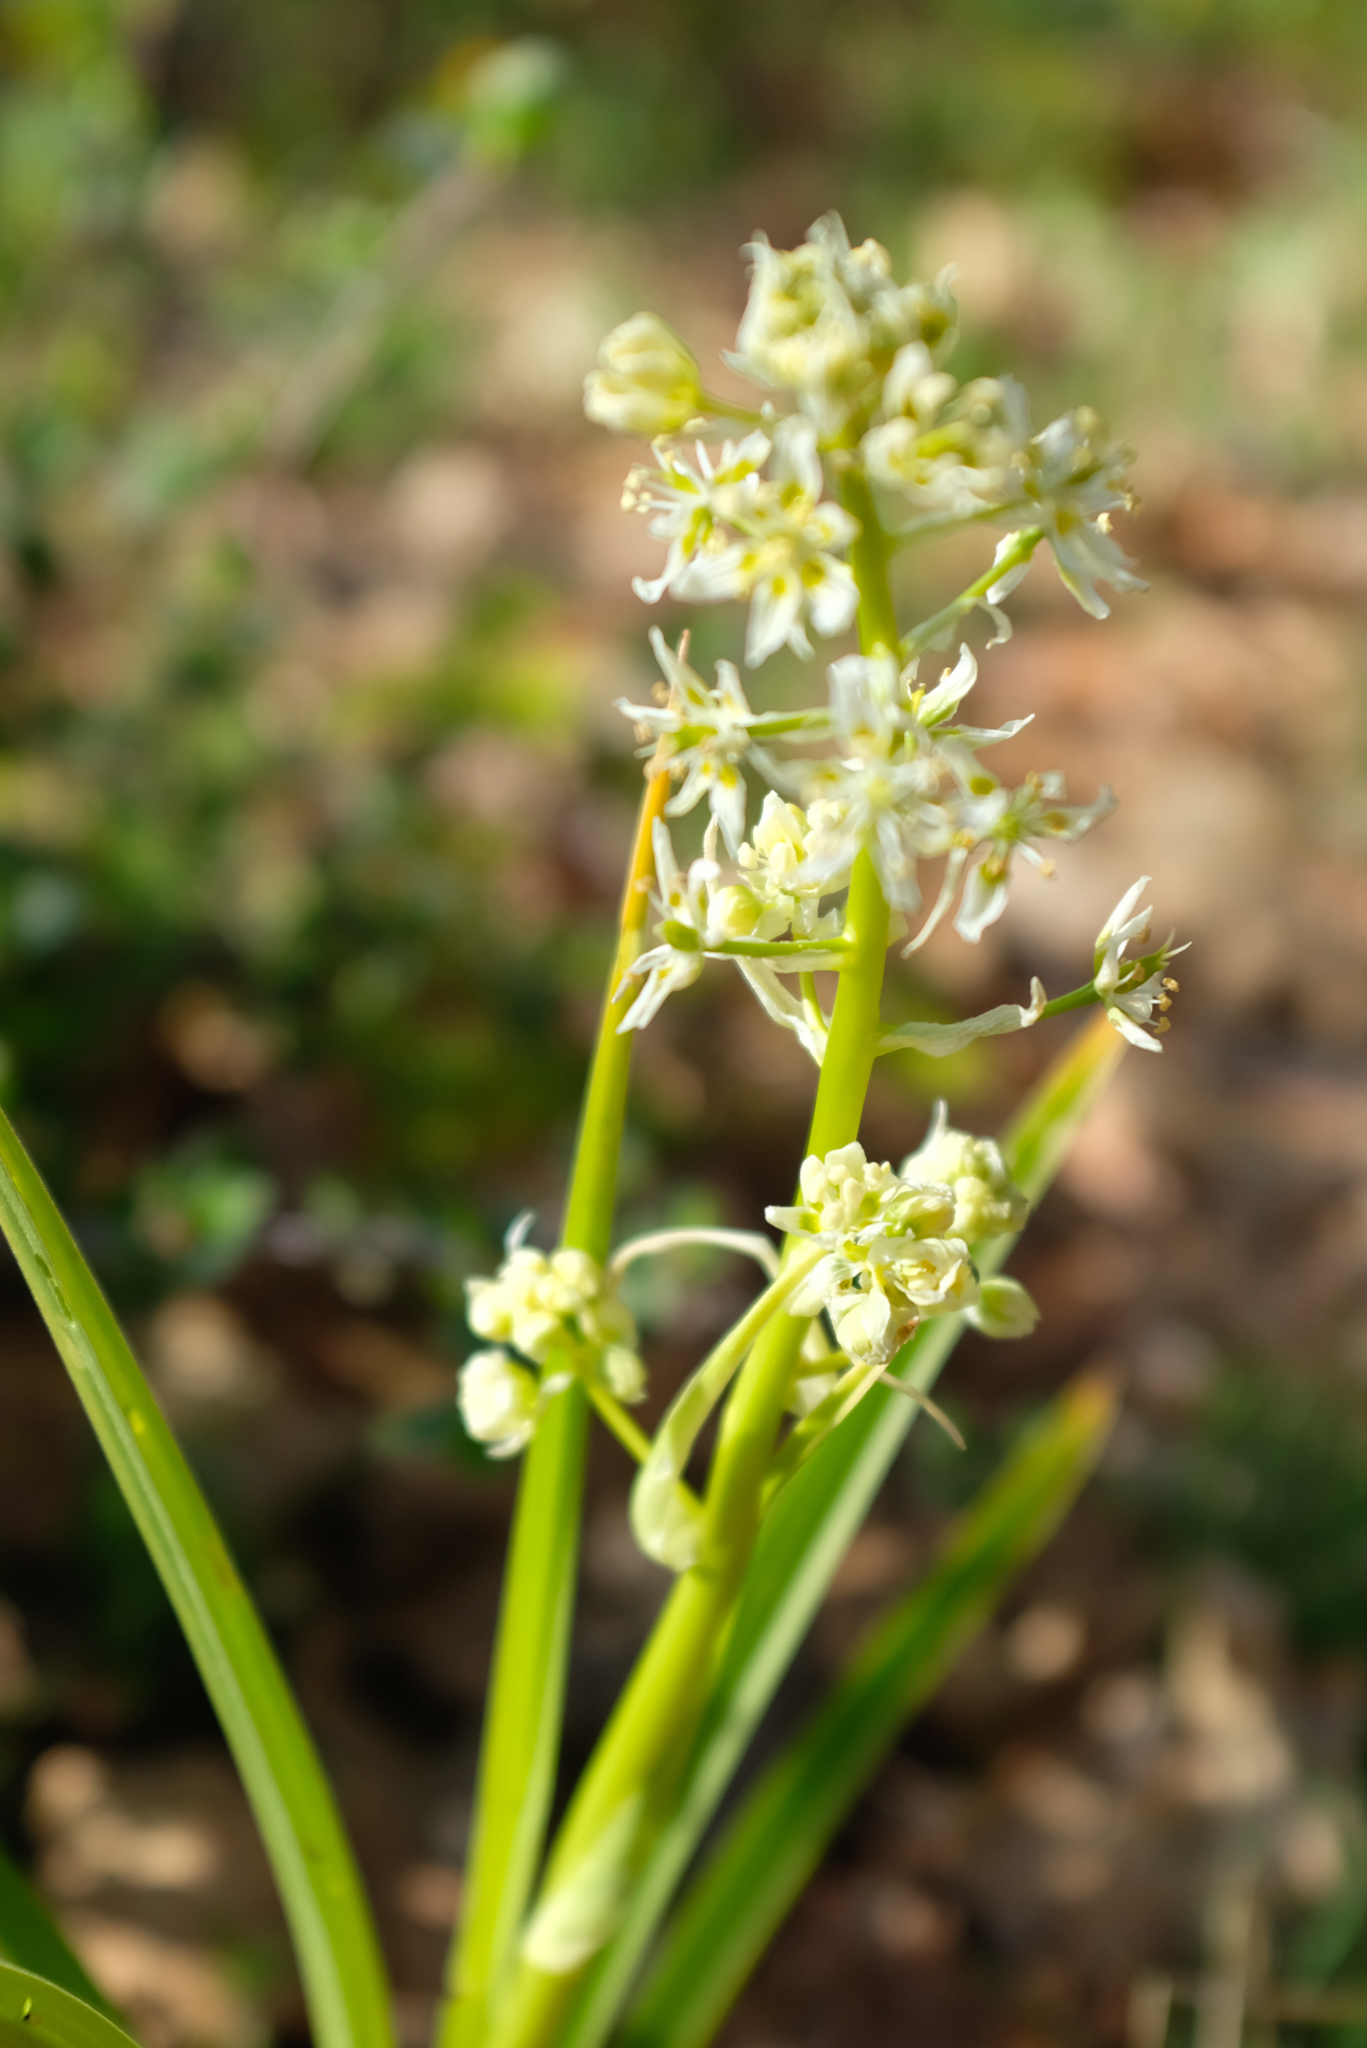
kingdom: Plantae
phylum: Tracheophyta
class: Liliopsida
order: Liliales
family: Melanthiaceae
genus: Toxicoscordion
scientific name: Toxicoscordion paniculatum
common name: Foothill death camas
